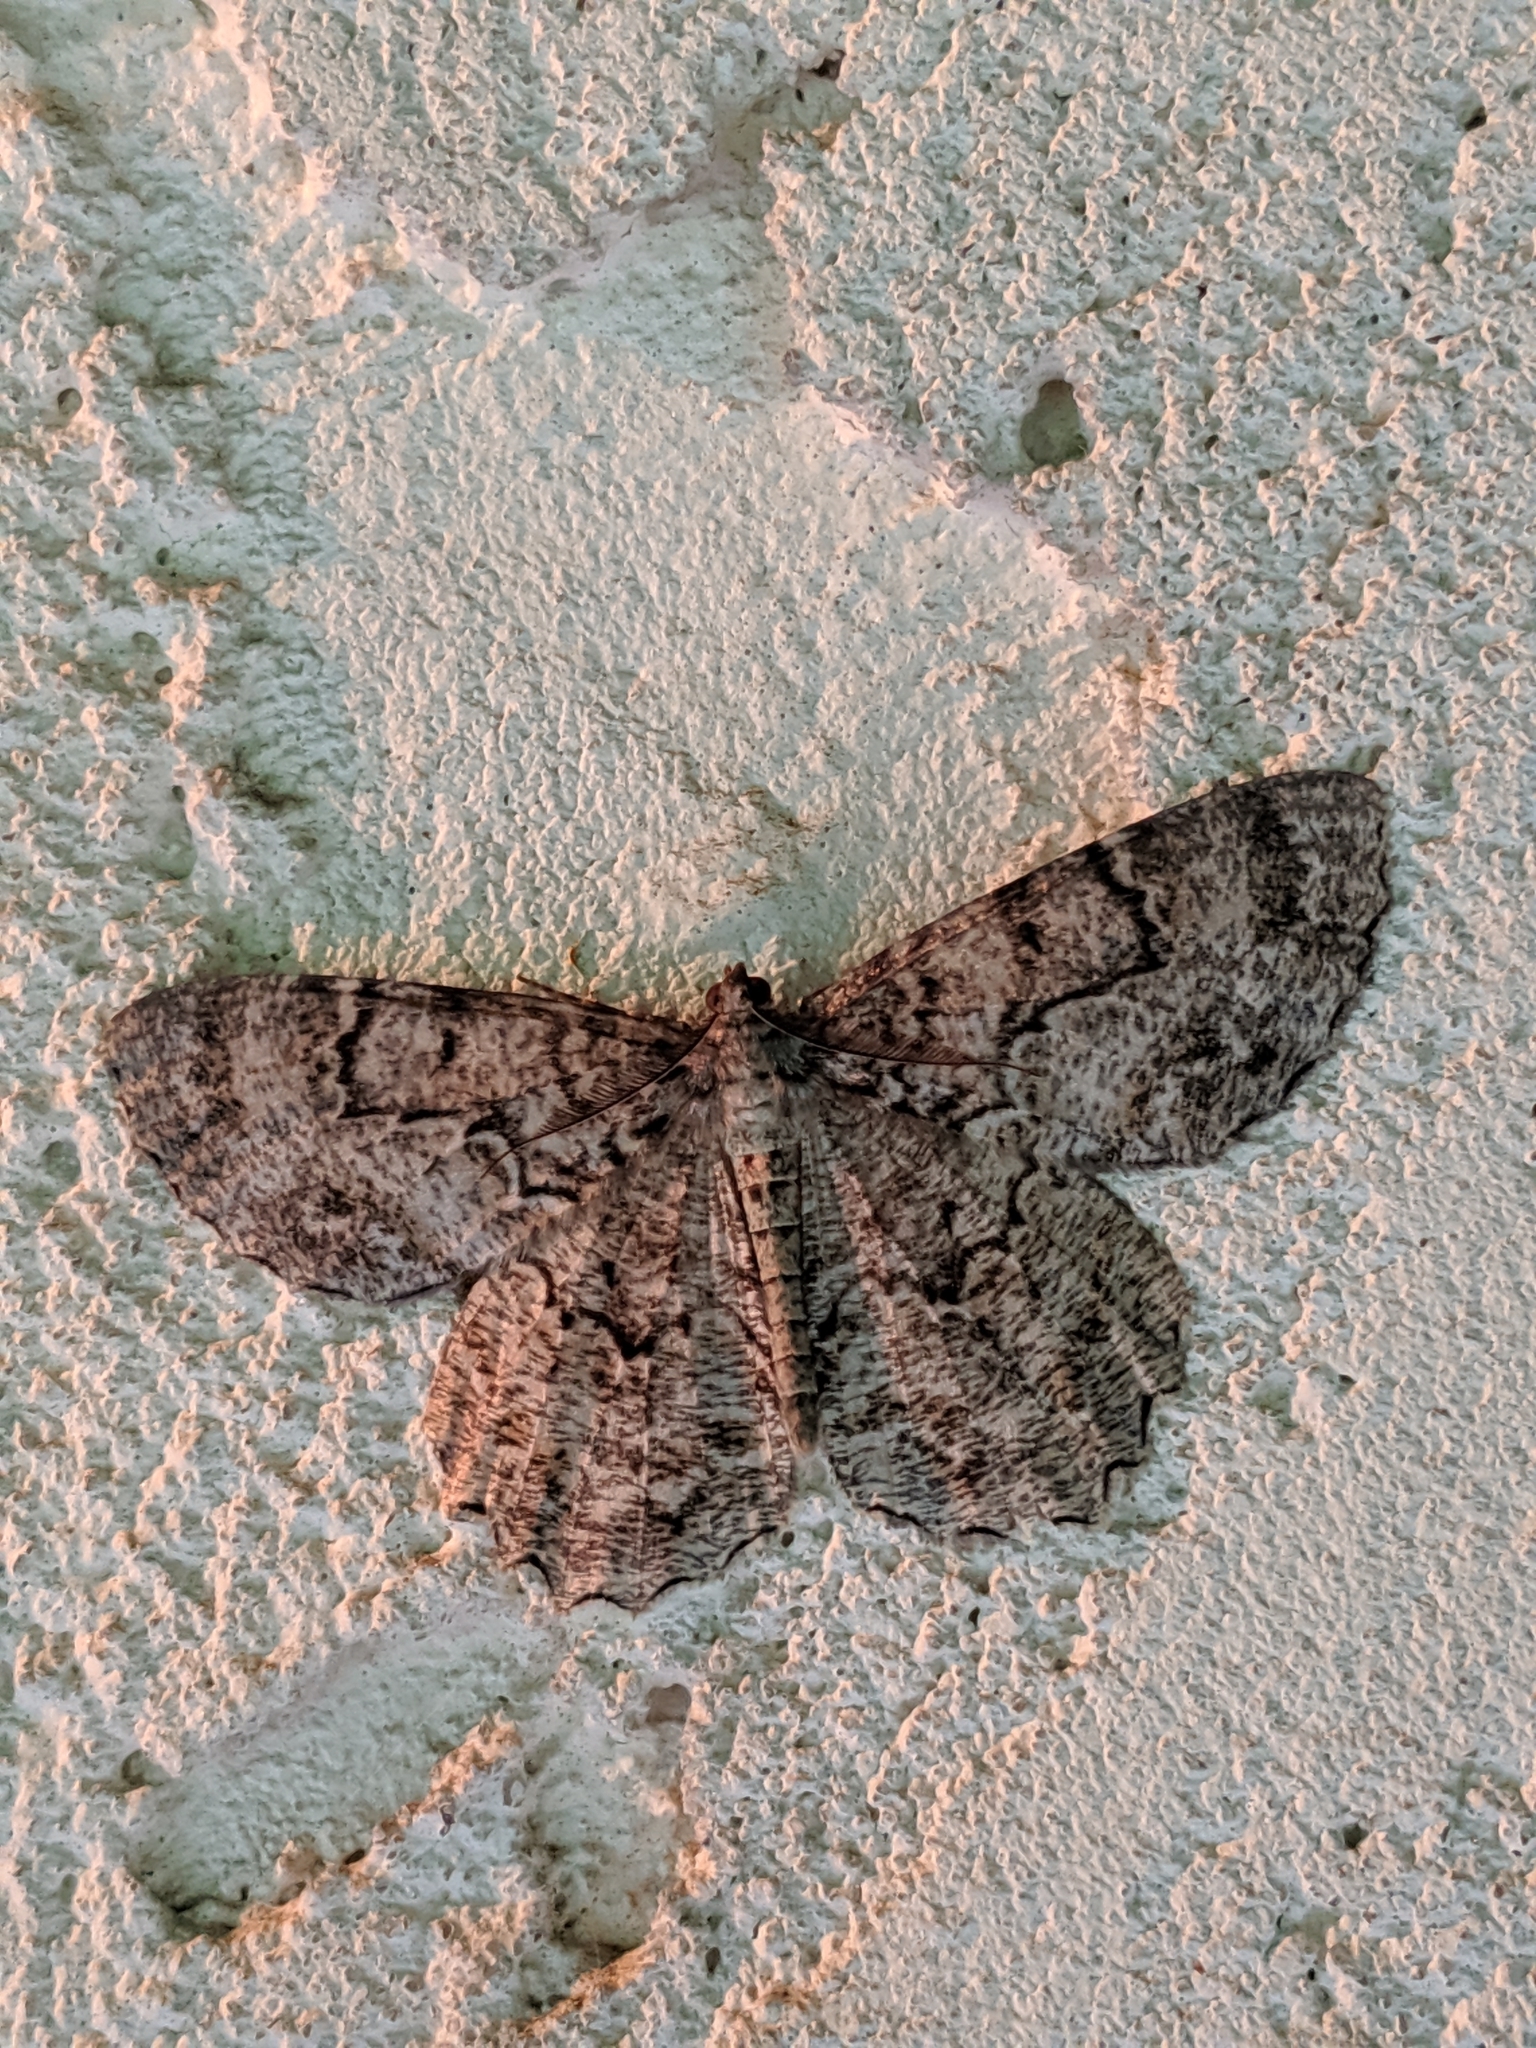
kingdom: Animalia
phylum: Arthropoda
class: Insecta
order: Lepidoptera
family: Geometridae
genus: Epimecis
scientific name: Epimecis hortaria
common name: Tulip-tree beauty
